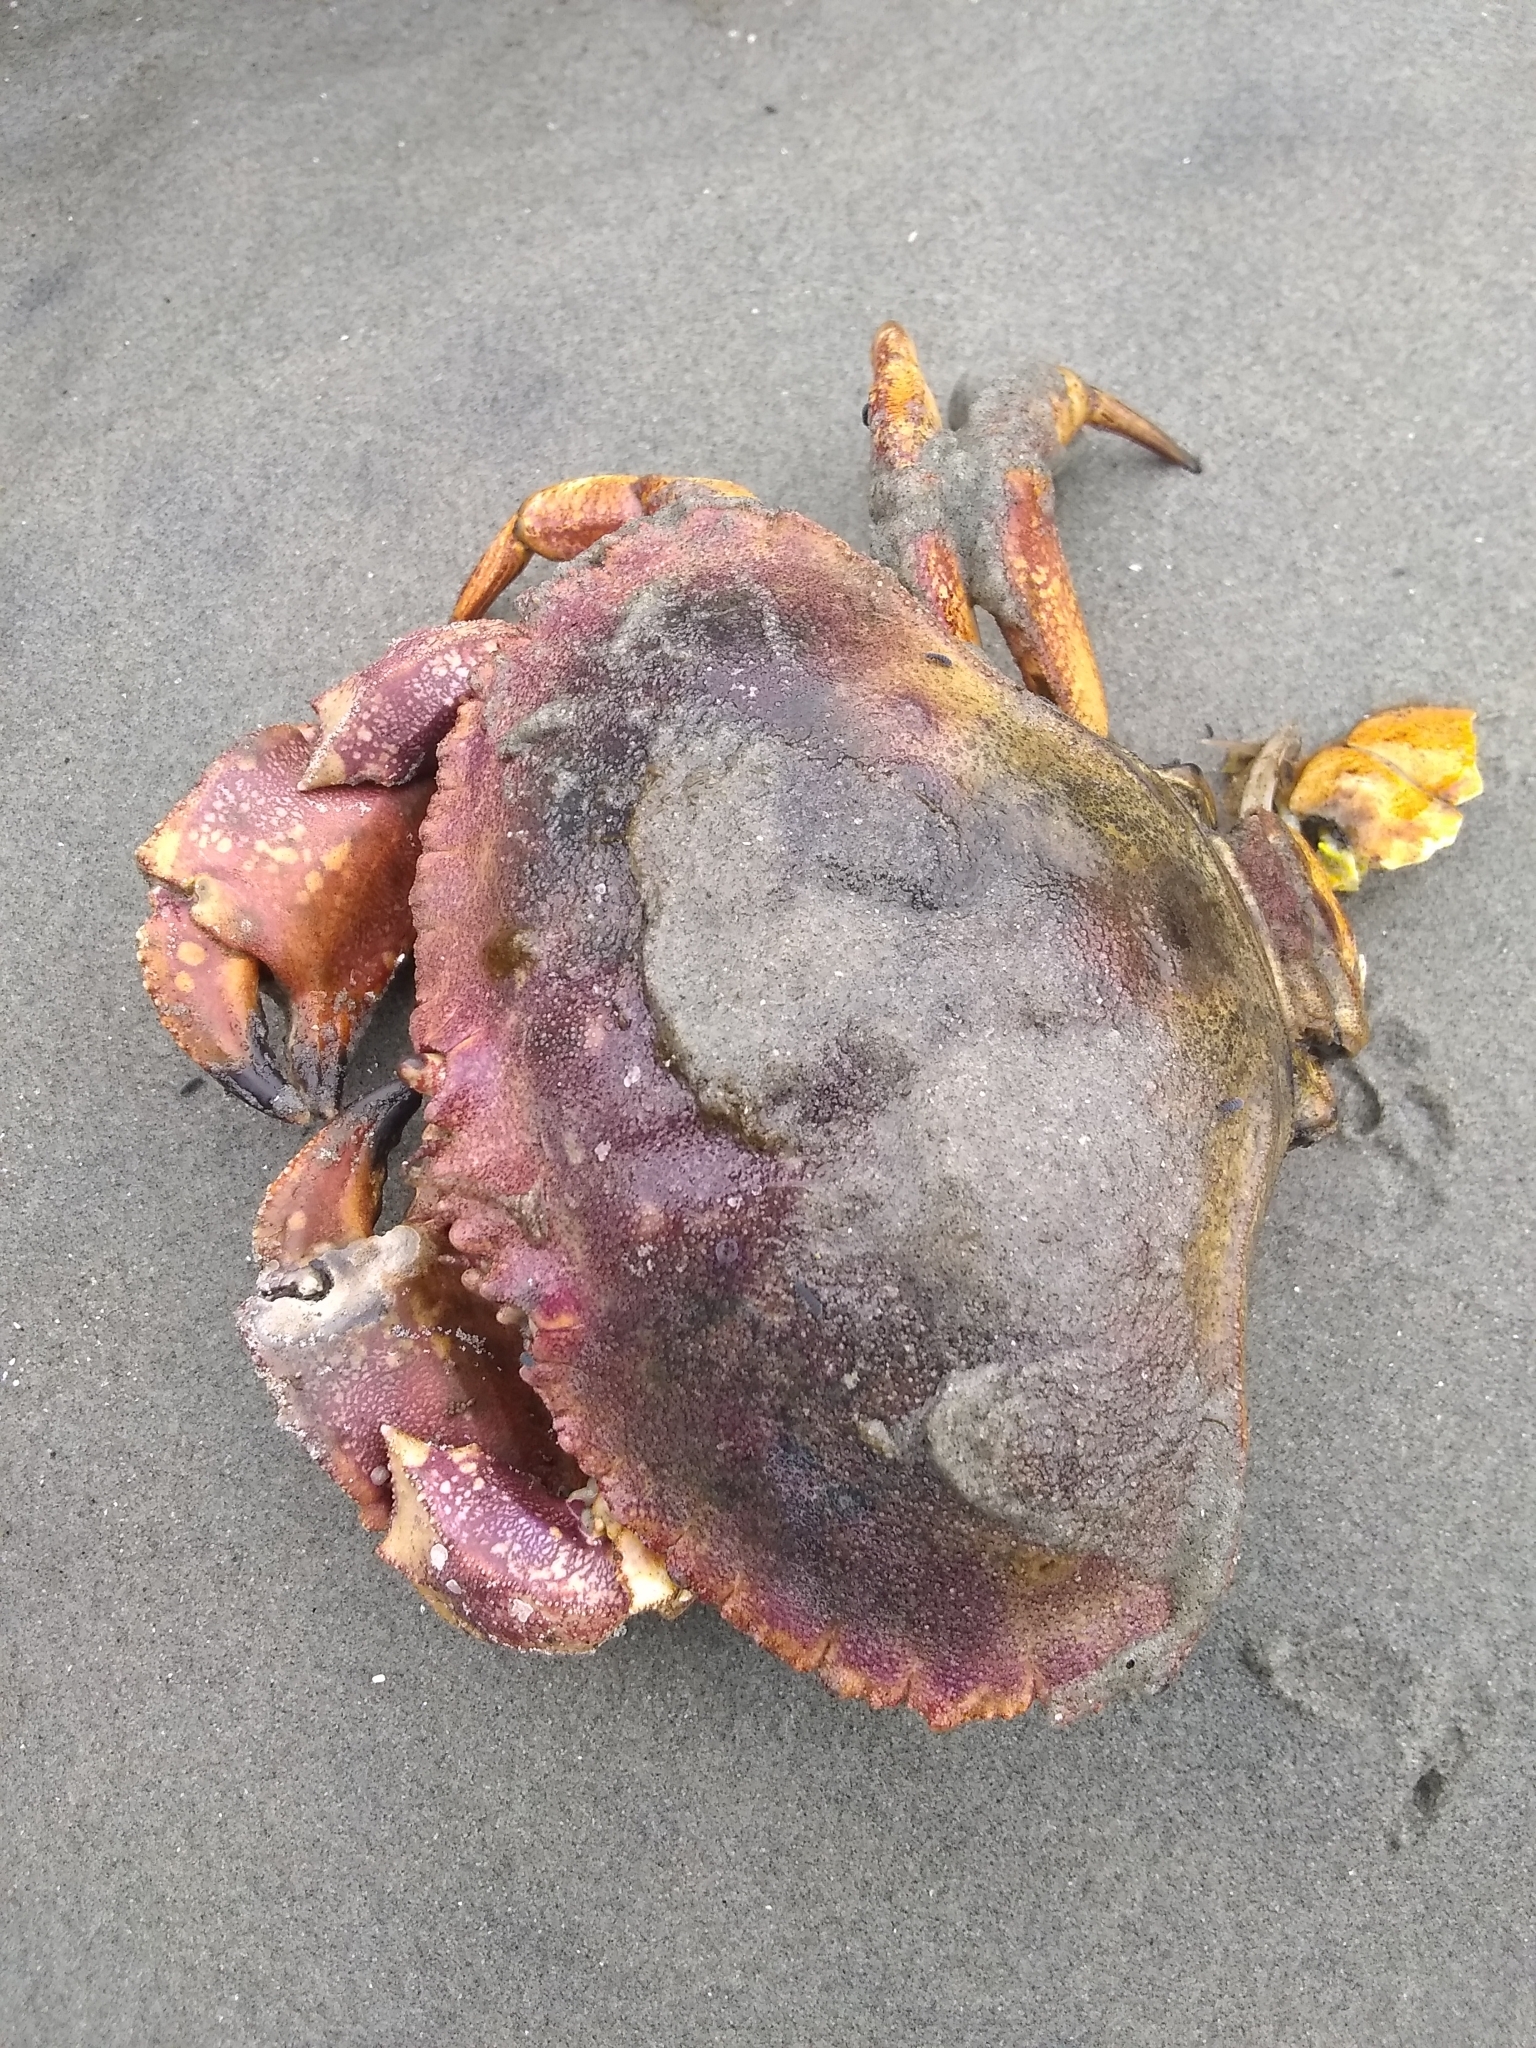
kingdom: Animalia
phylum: Arthropoda
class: Malacostraca
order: Decapoda
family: Cancridae
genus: Cancer
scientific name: Cancer borealis
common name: Jonah crab
